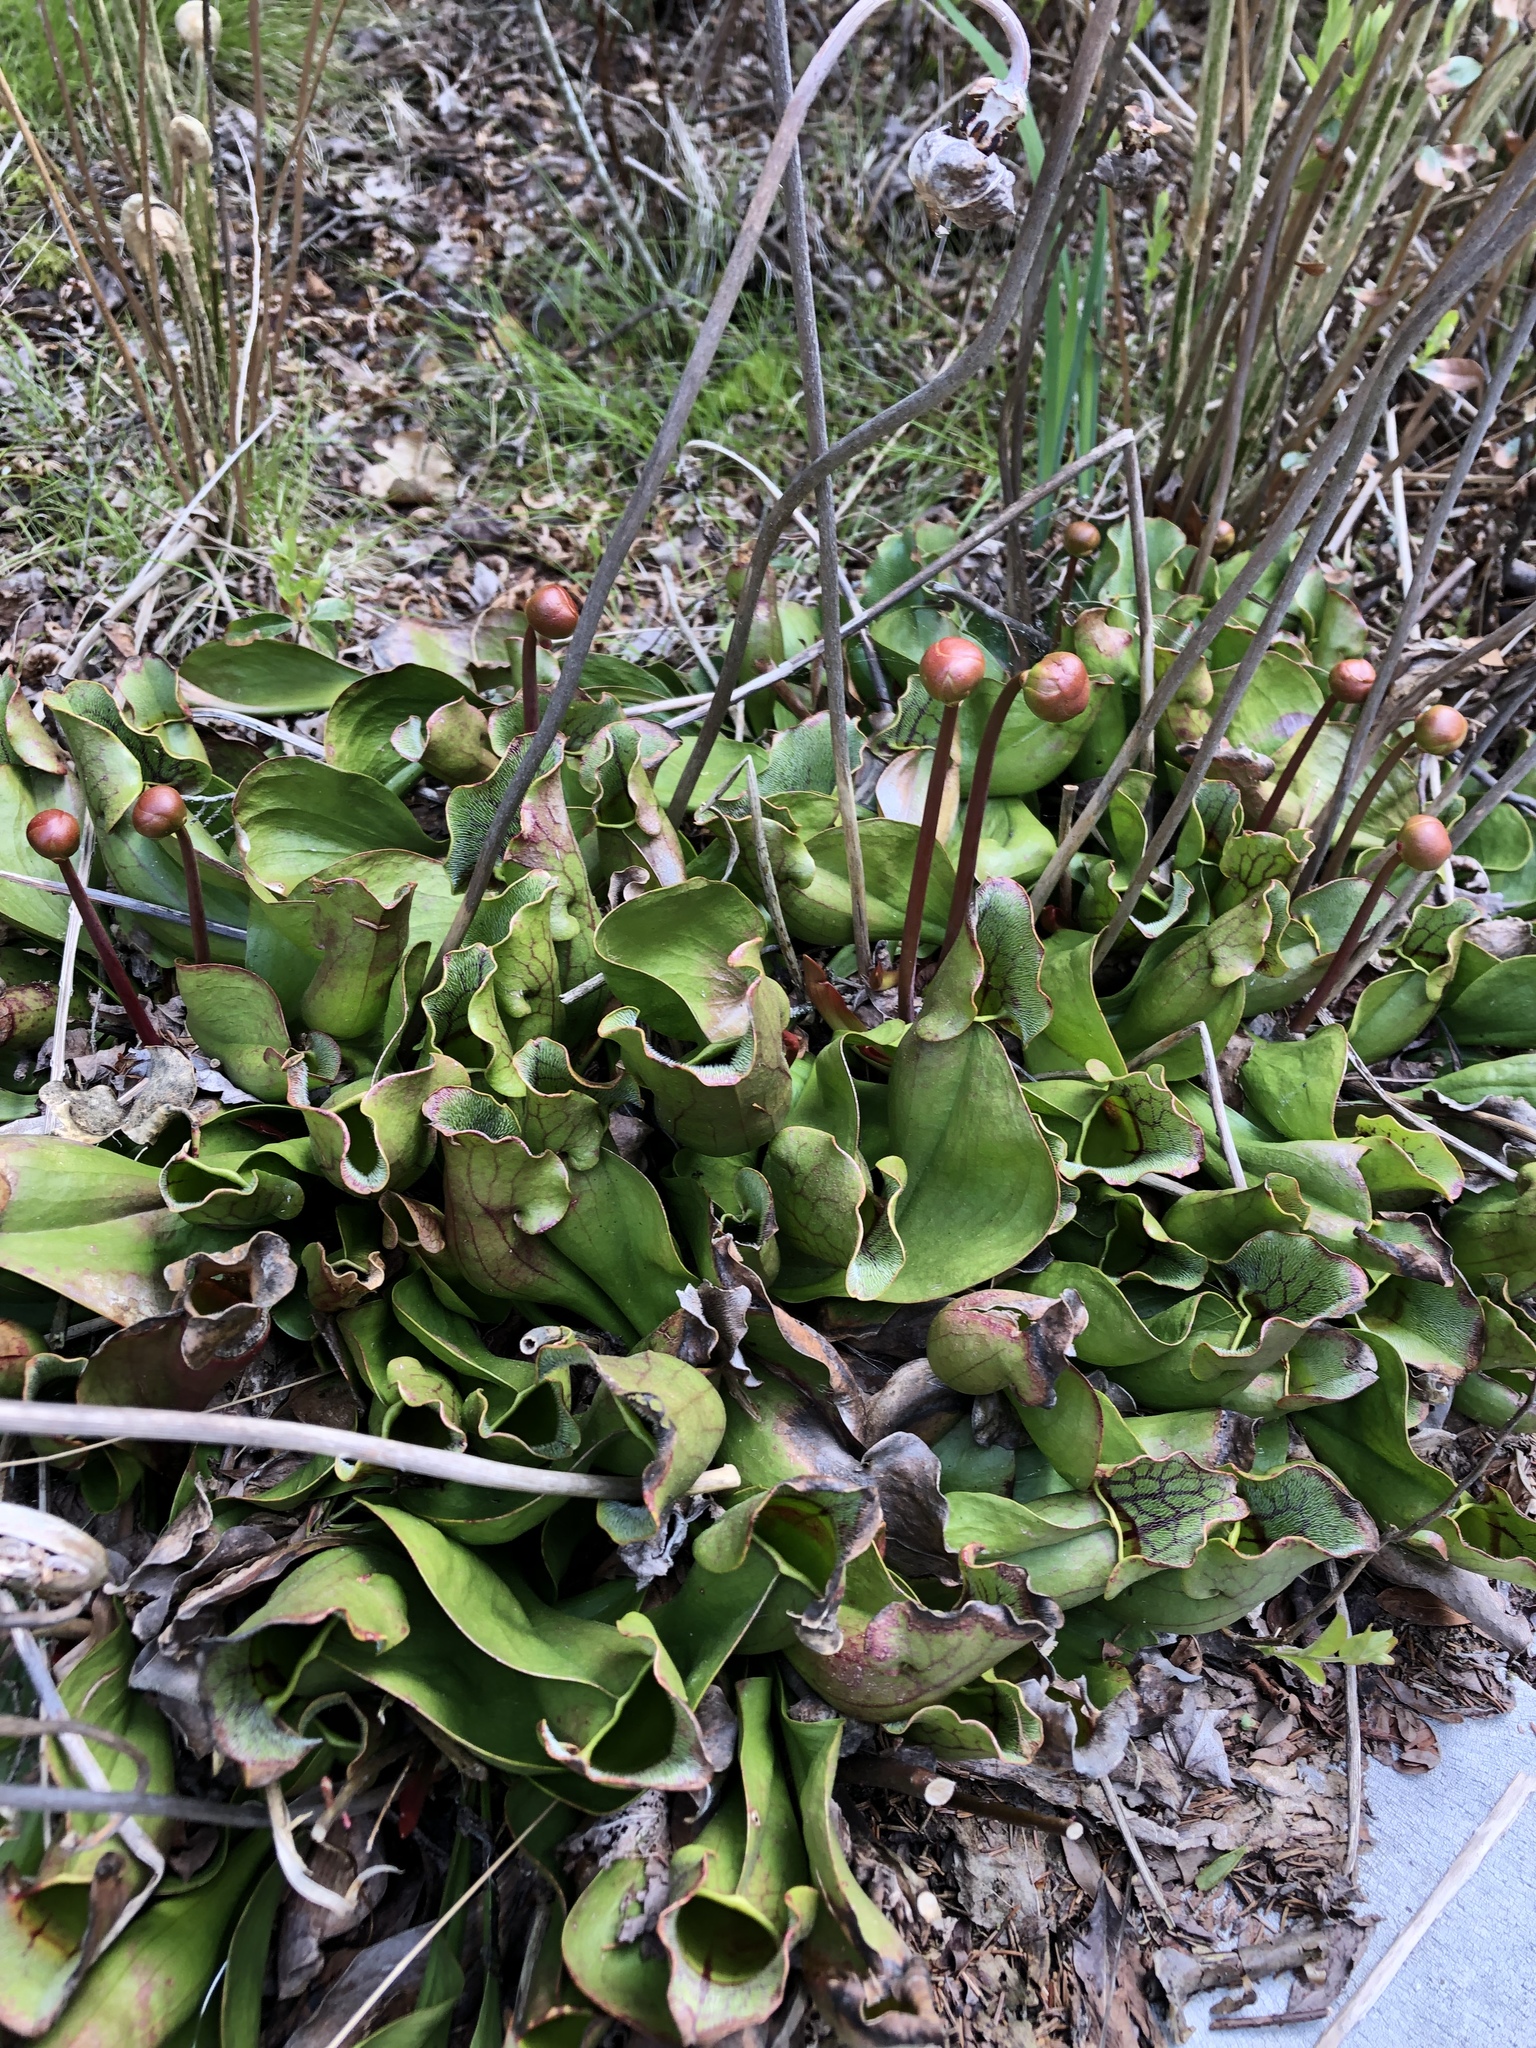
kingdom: Plantae
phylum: Tracheophyta
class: Magnoliopsida
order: Ericales
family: Sarraceniaceae
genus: Sarracenia
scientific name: Sarracenia purpurea
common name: Pitcherplant
